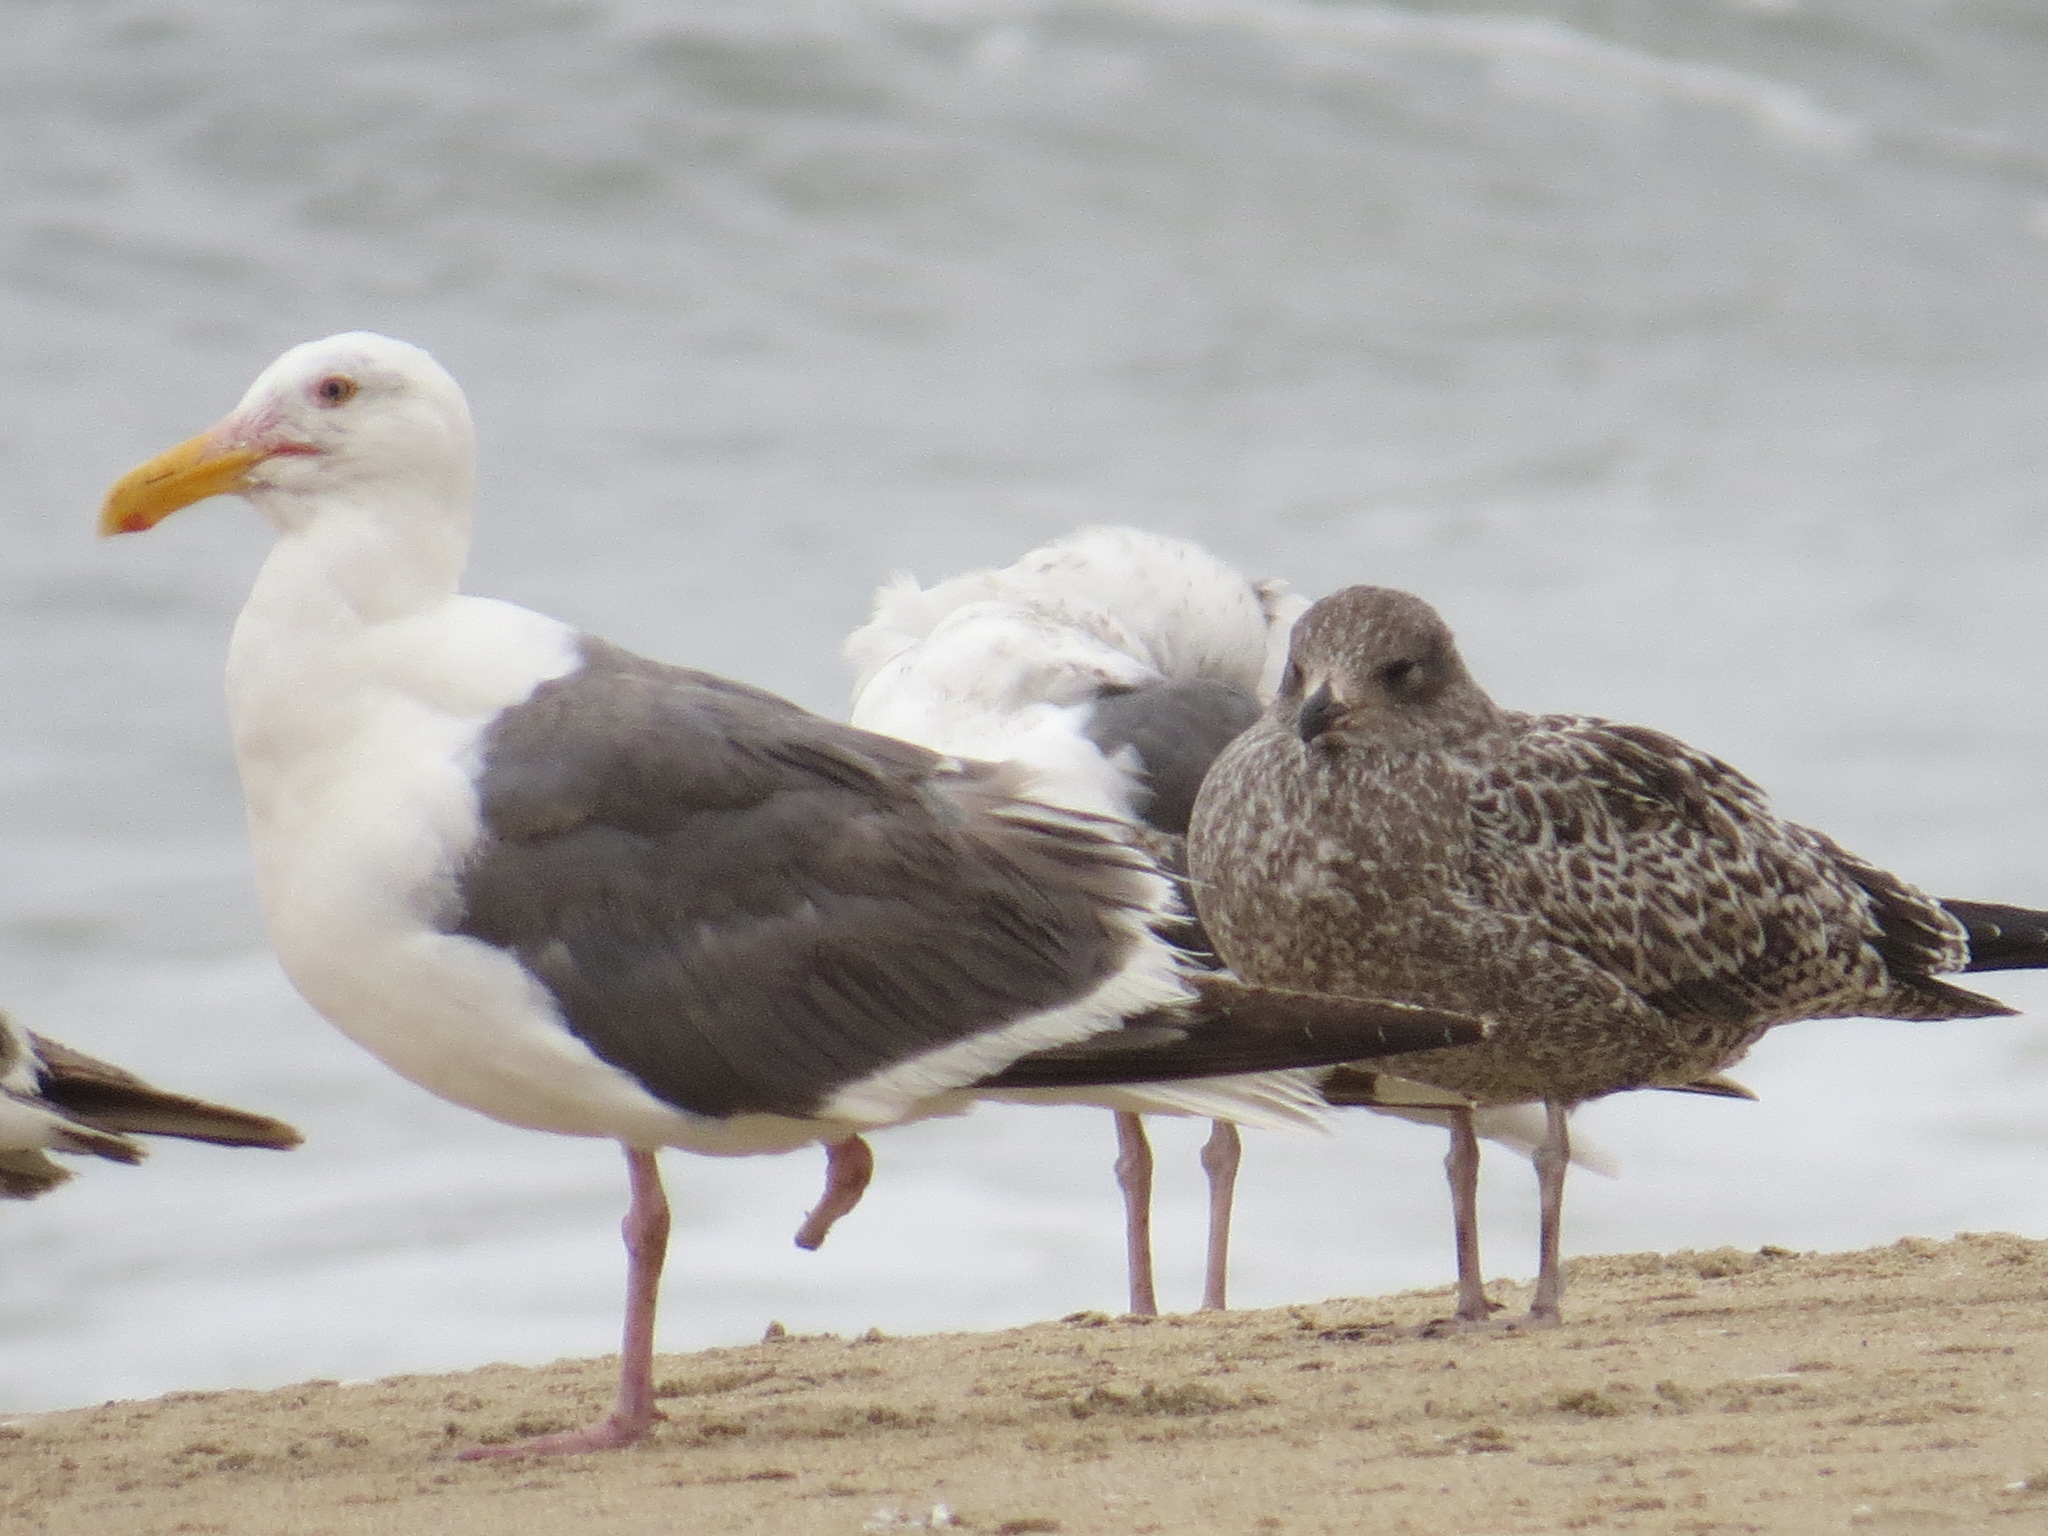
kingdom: Animalia
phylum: Chordata
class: Aves
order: Charadriiformes
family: Laridae
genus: Larus
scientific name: Larus occidentalis
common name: Western gull
